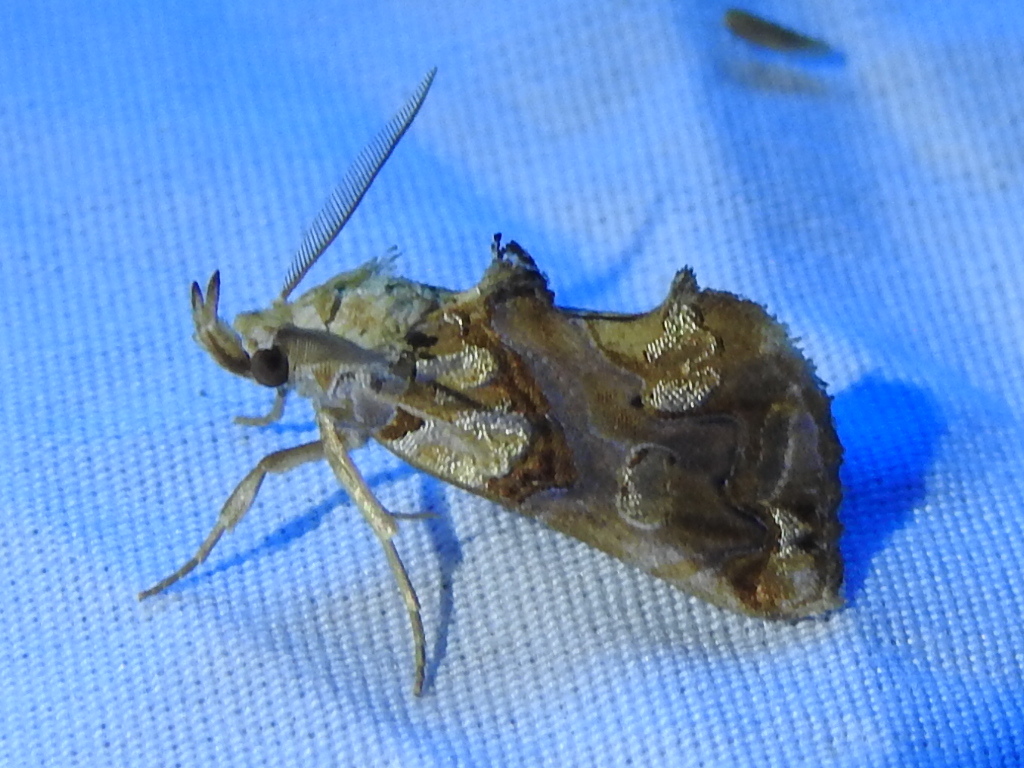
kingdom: Animalia
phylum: Arthropoda
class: Insecta
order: Lepidoptera
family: Erebidae
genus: Plusiodonta
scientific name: Plusiodonta compressipalpis
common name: Moonseed moth
